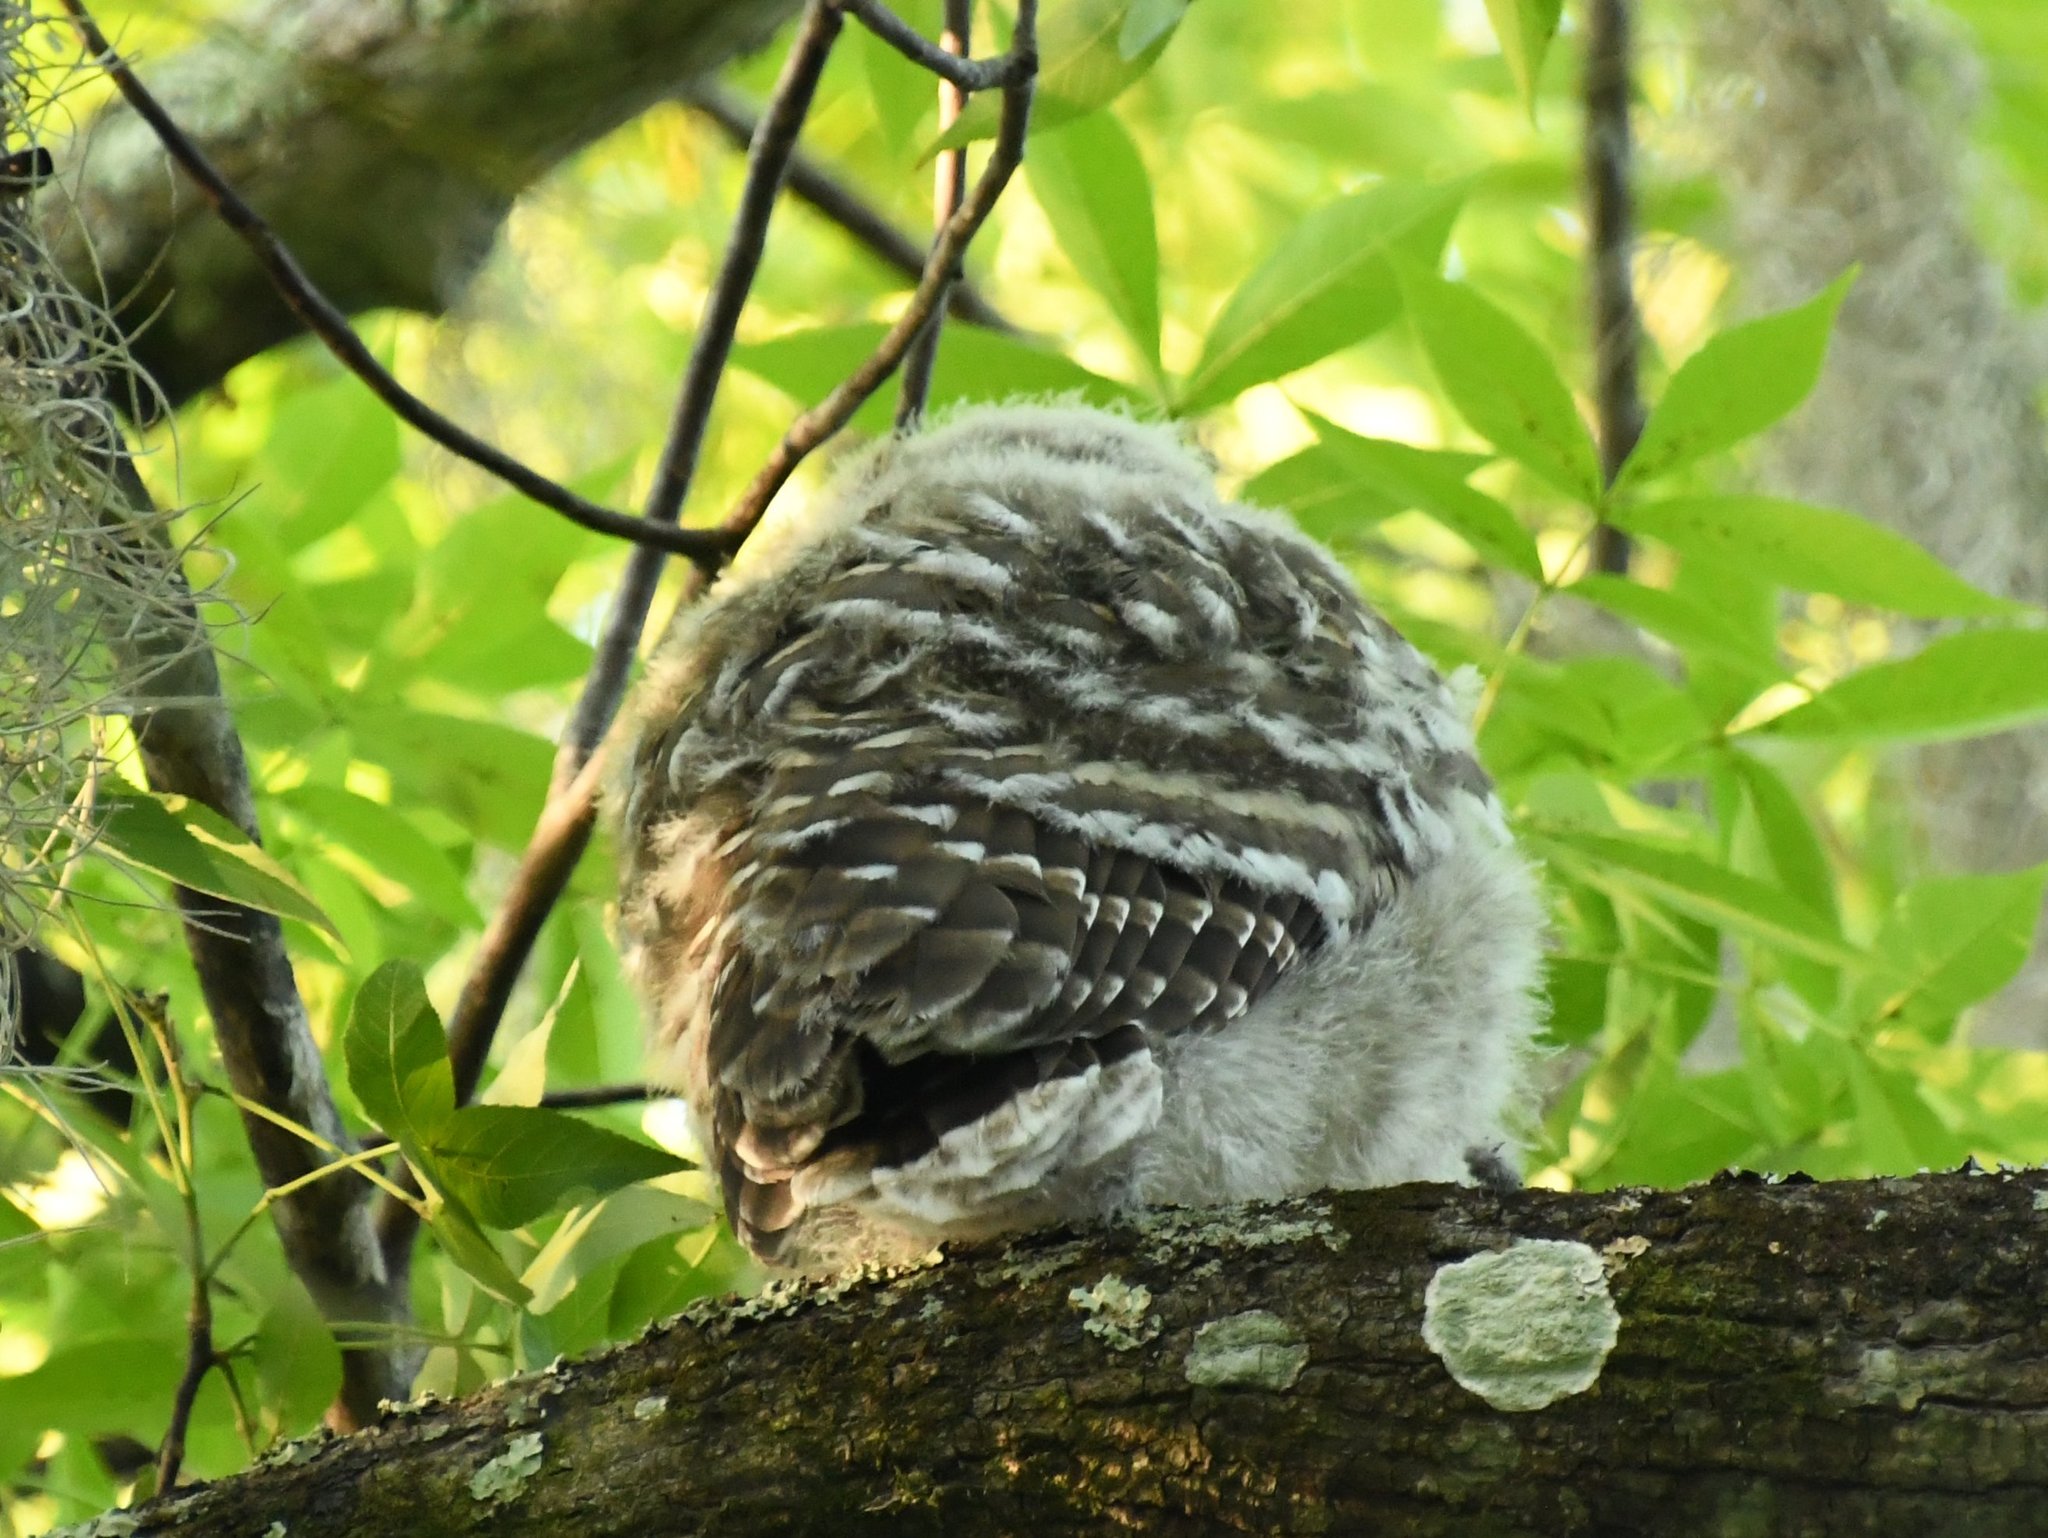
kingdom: Animalia
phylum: Chordata
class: Aves
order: Strigiformes
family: Strigidae
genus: Strix
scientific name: Strix varia
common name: Barred owl
